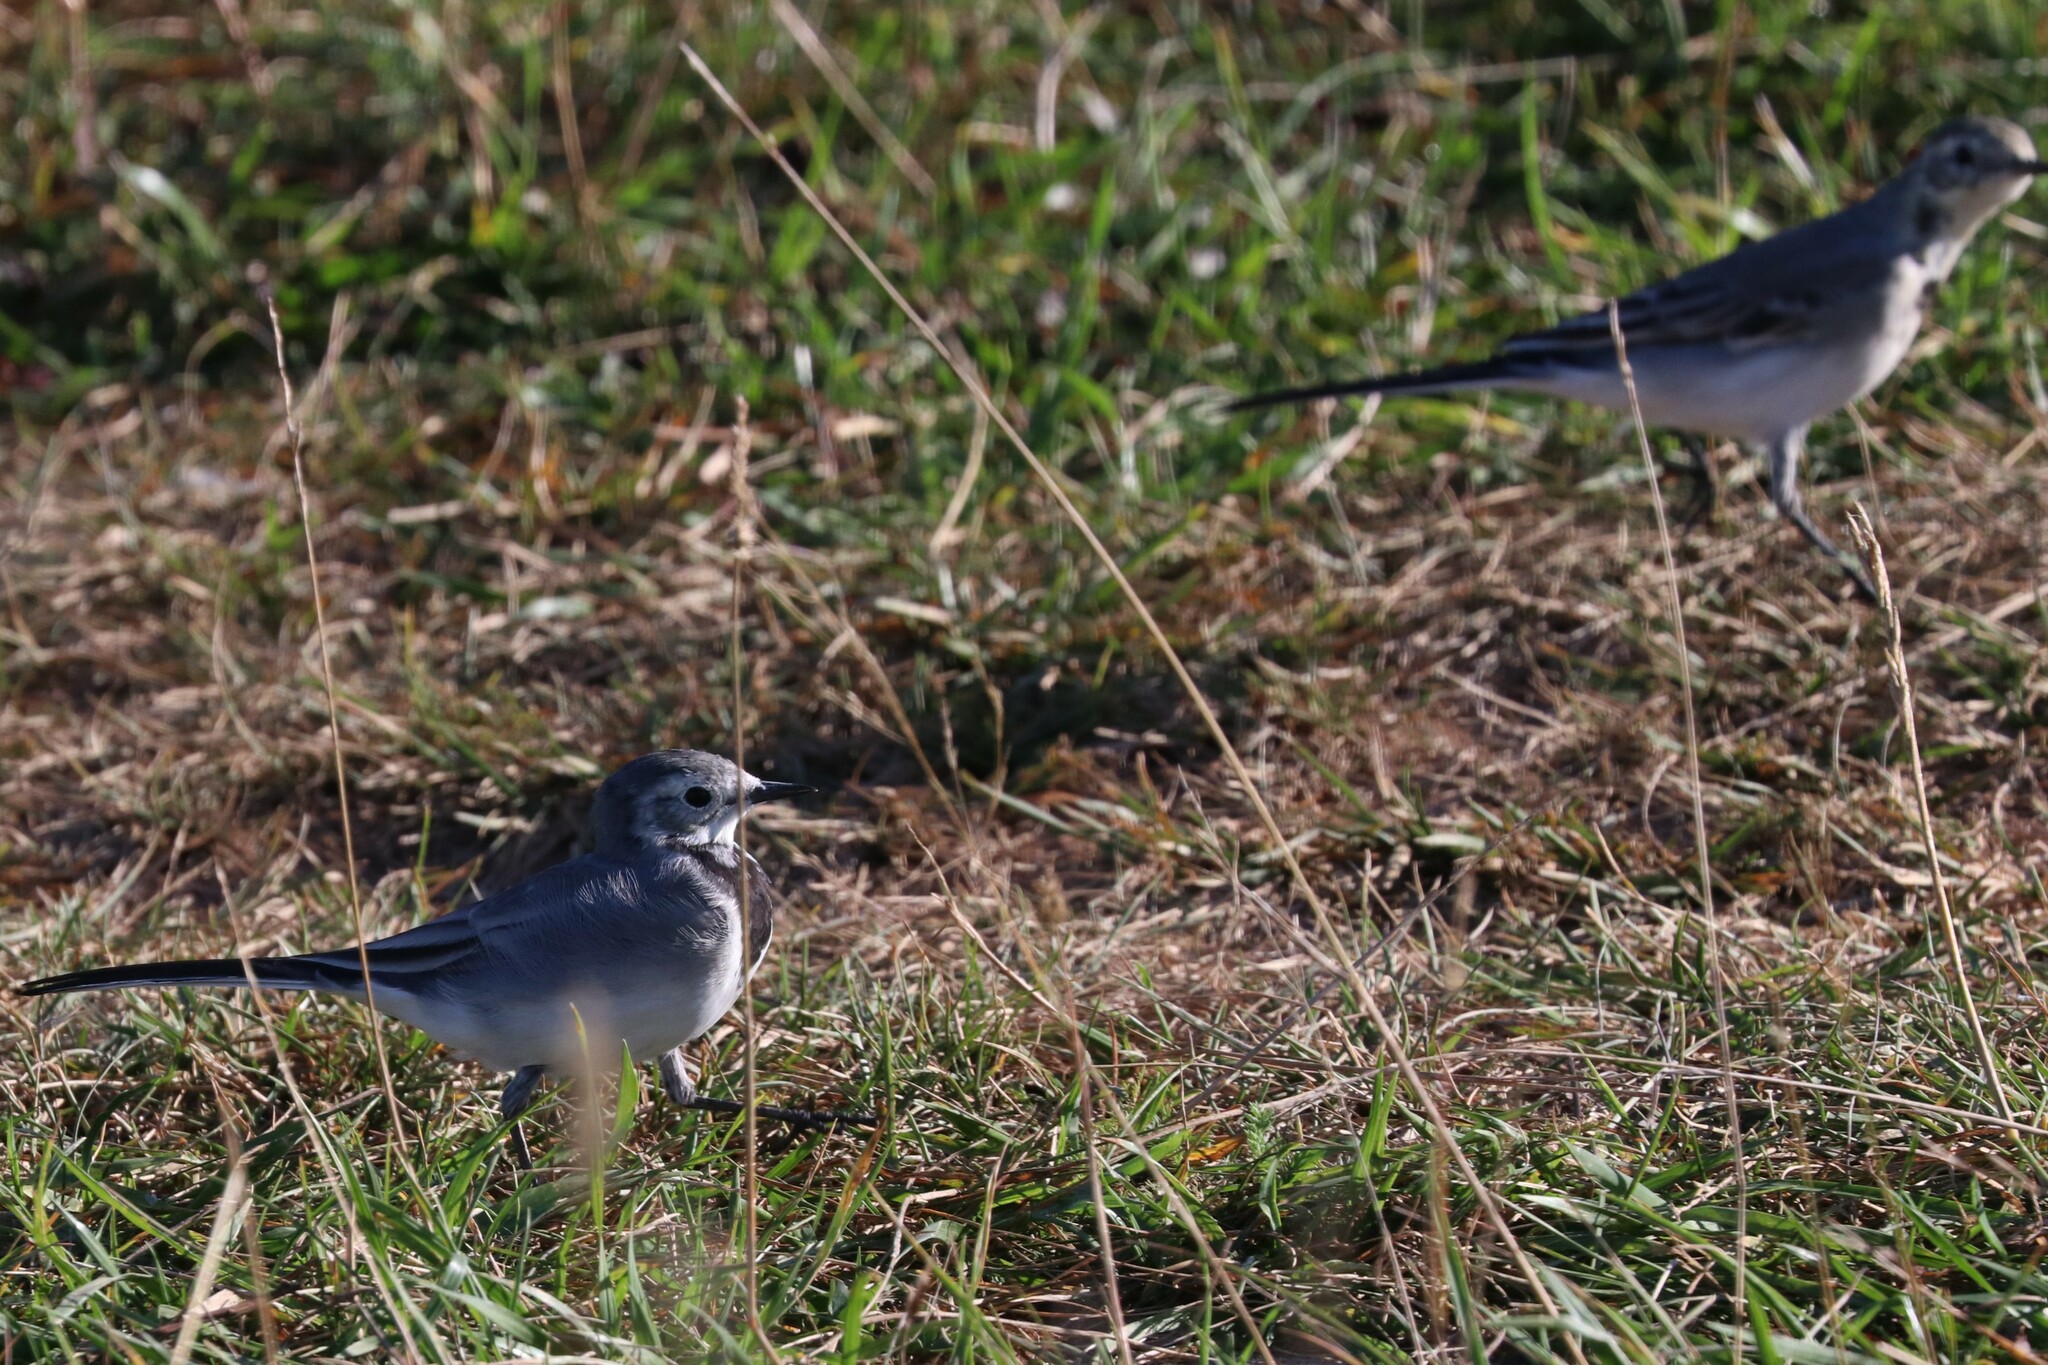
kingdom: Animalia
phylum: Chordata
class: Aves
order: Passeriformes
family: Motacillidae
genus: Motacilla
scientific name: Motacilla alba
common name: White wagtail
